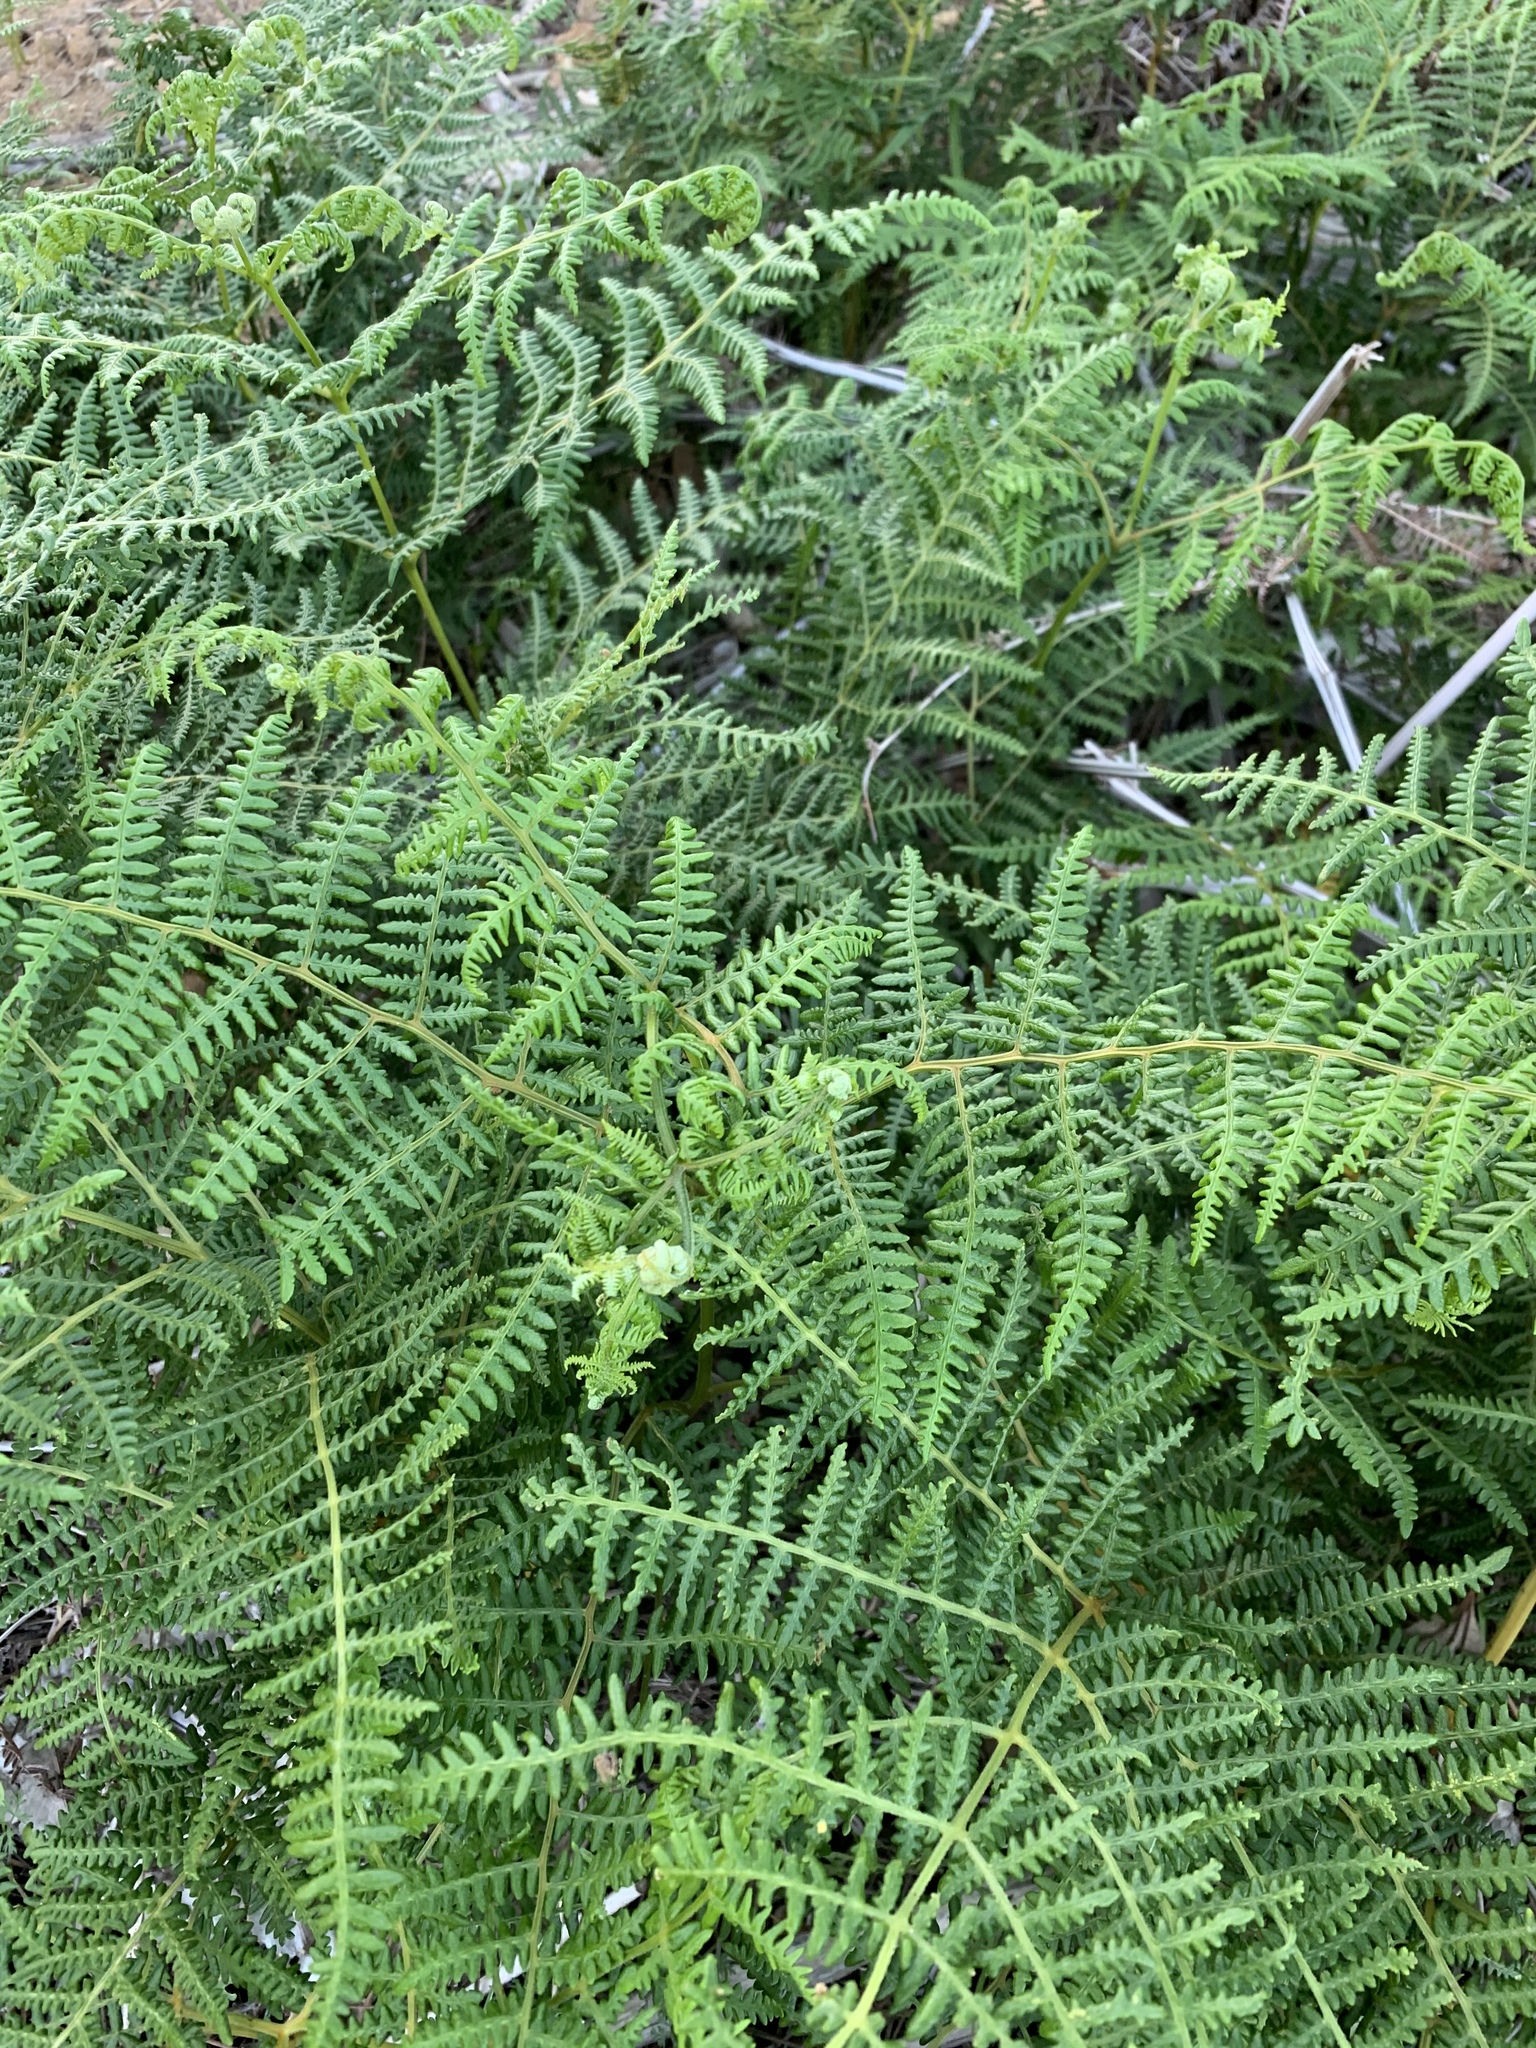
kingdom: Plantae
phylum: Tracheophyta
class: Polypodiopsida
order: Polypodiales
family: Dennstaedtiaceae
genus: Pteridium
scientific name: Pteridium aquilinum
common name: Bracken
